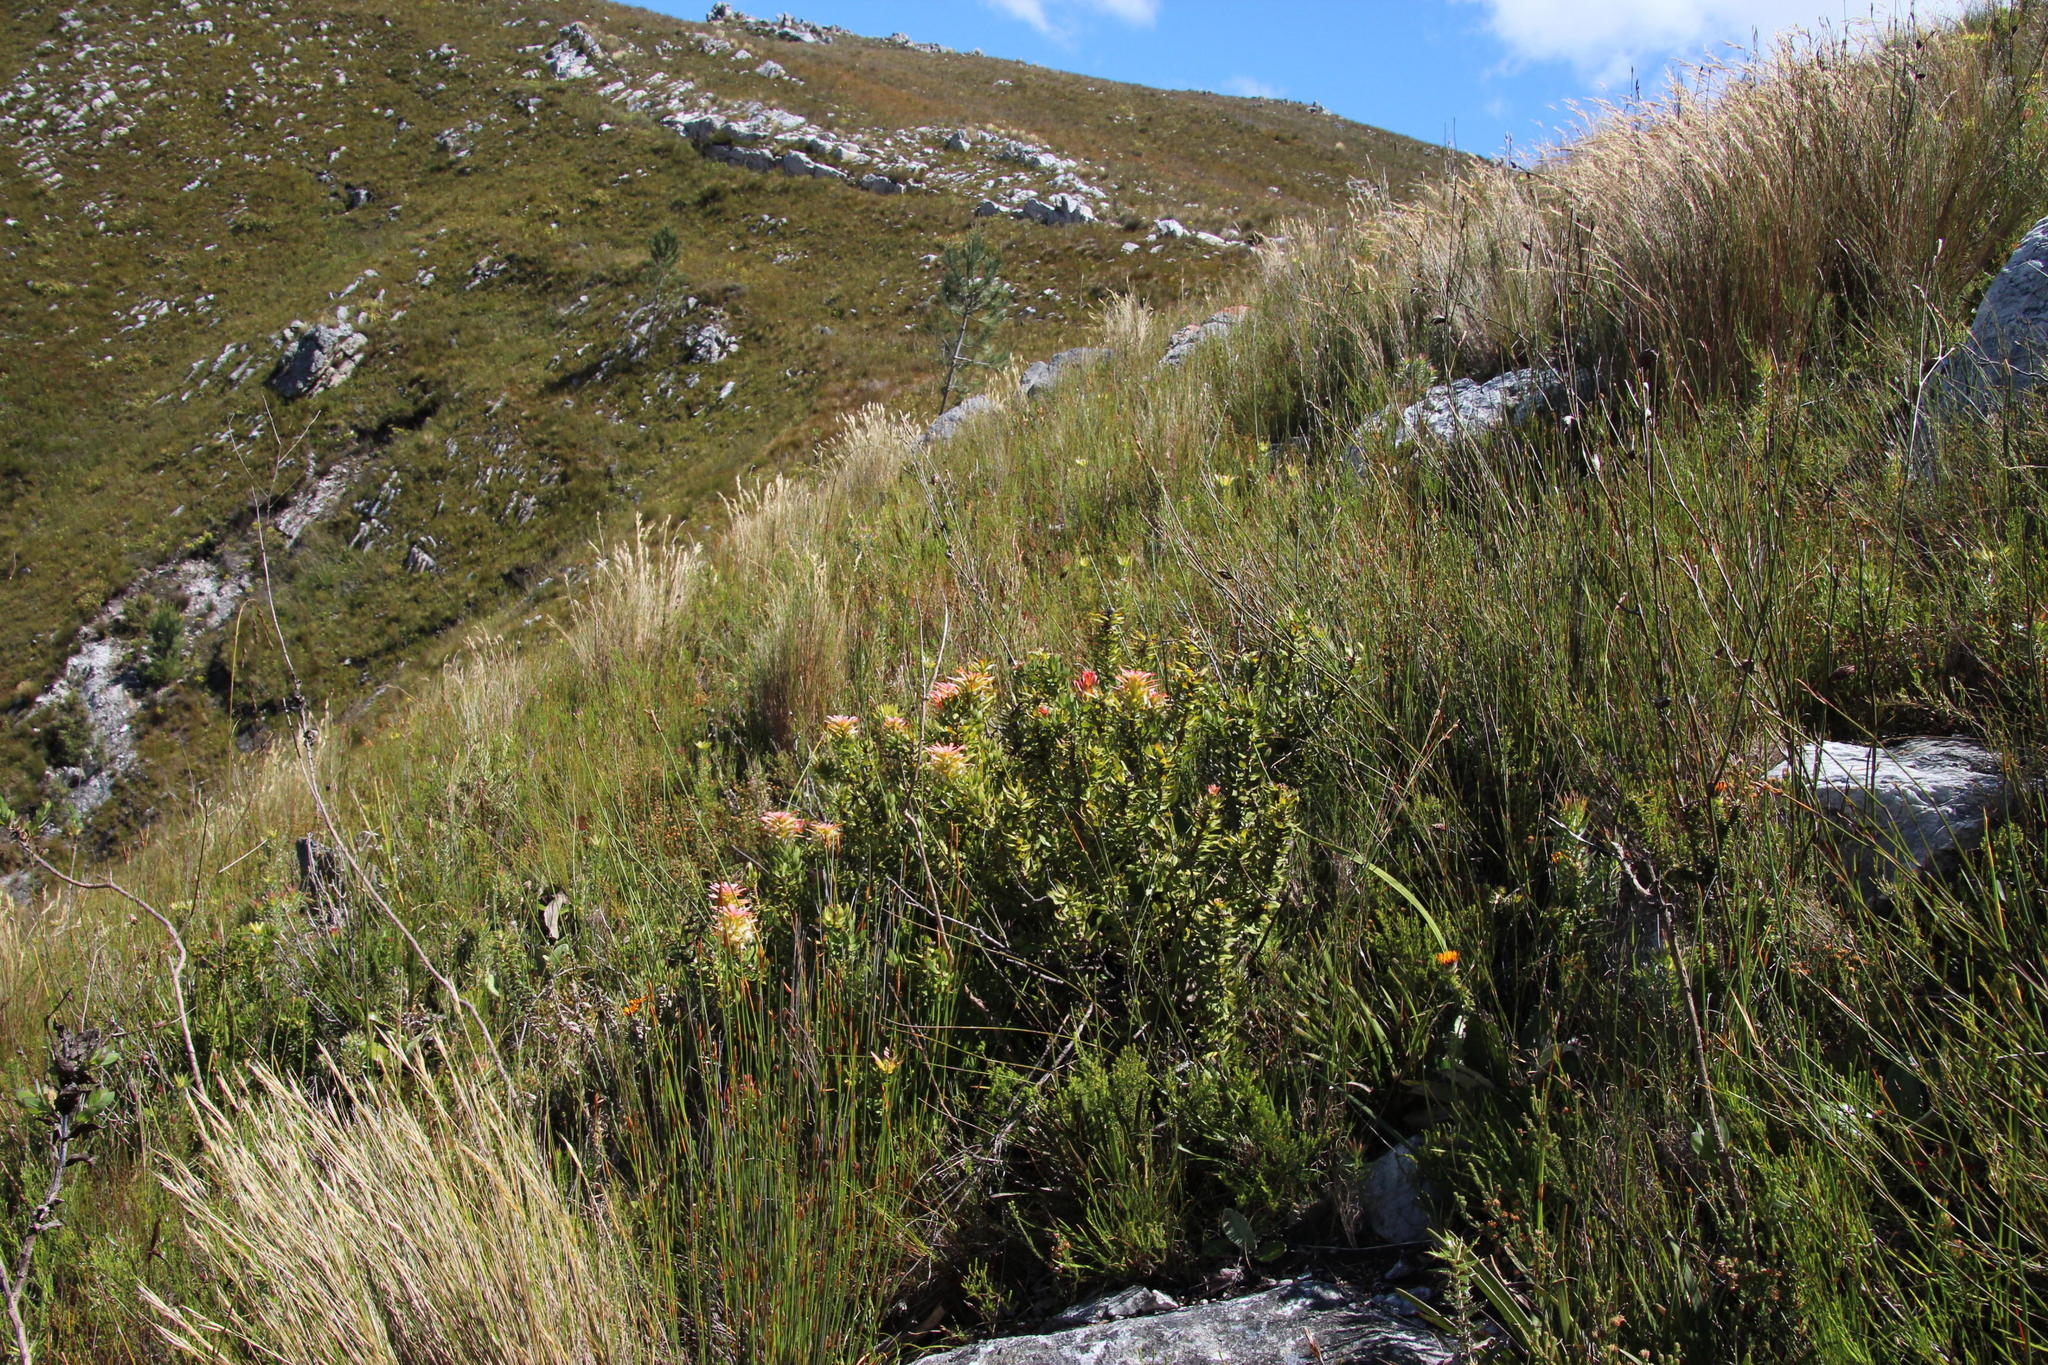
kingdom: Plantae
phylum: Tracheophyta
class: Magnoliopsida
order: Proteales
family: Proteaceae
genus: Mimetes
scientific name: Mimetes cucullatus
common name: Common pagoda
